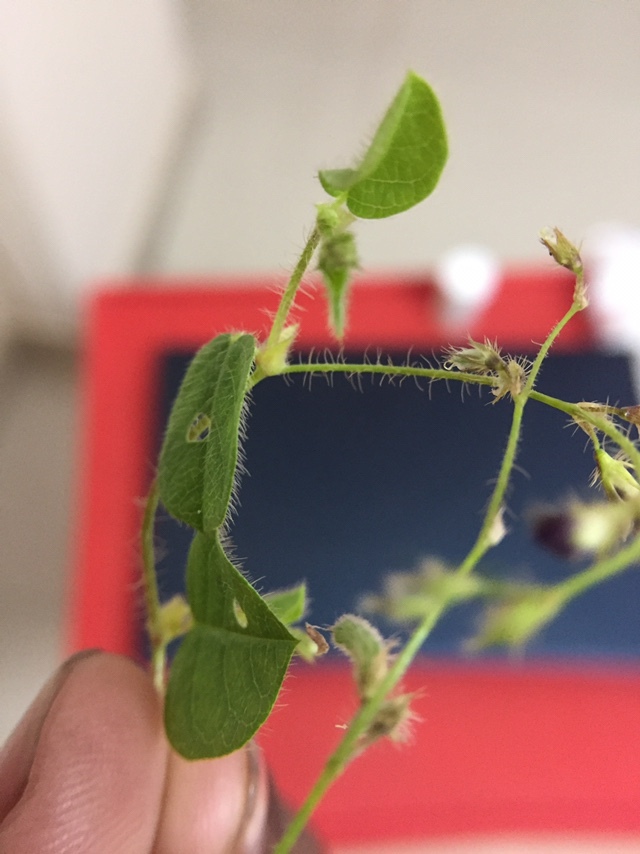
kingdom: Plantae
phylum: Tracheophyta
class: Magnoliopsida
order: Fabales
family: Fabaceae
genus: Alysicarpus
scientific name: Alysicarpus hamosus
